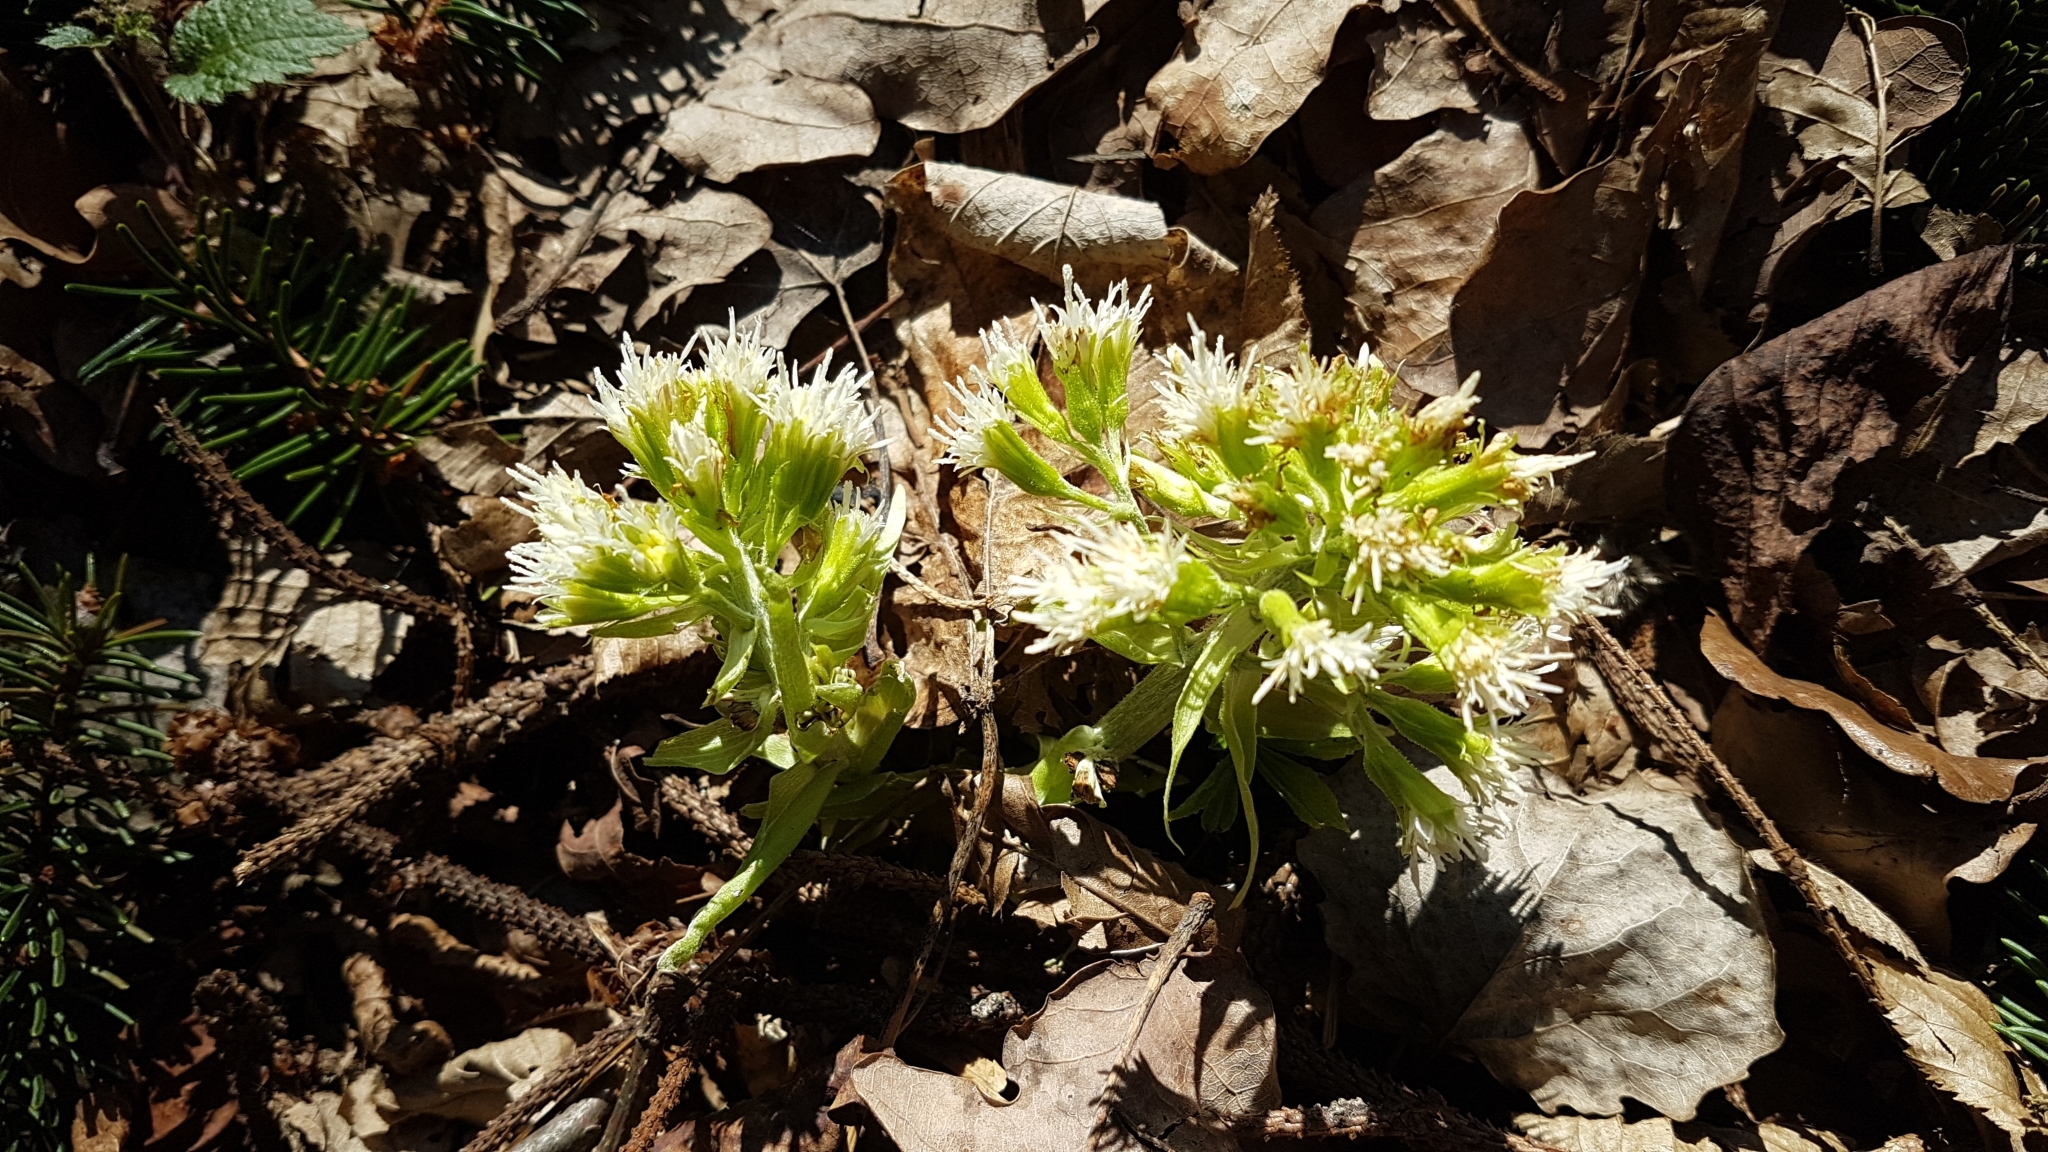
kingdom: Plantae
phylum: Tracheophyta
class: Magnoliopsida
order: Asterales
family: Asteraceae
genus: Petasites
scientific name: Petasites albus
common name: White butterbur
